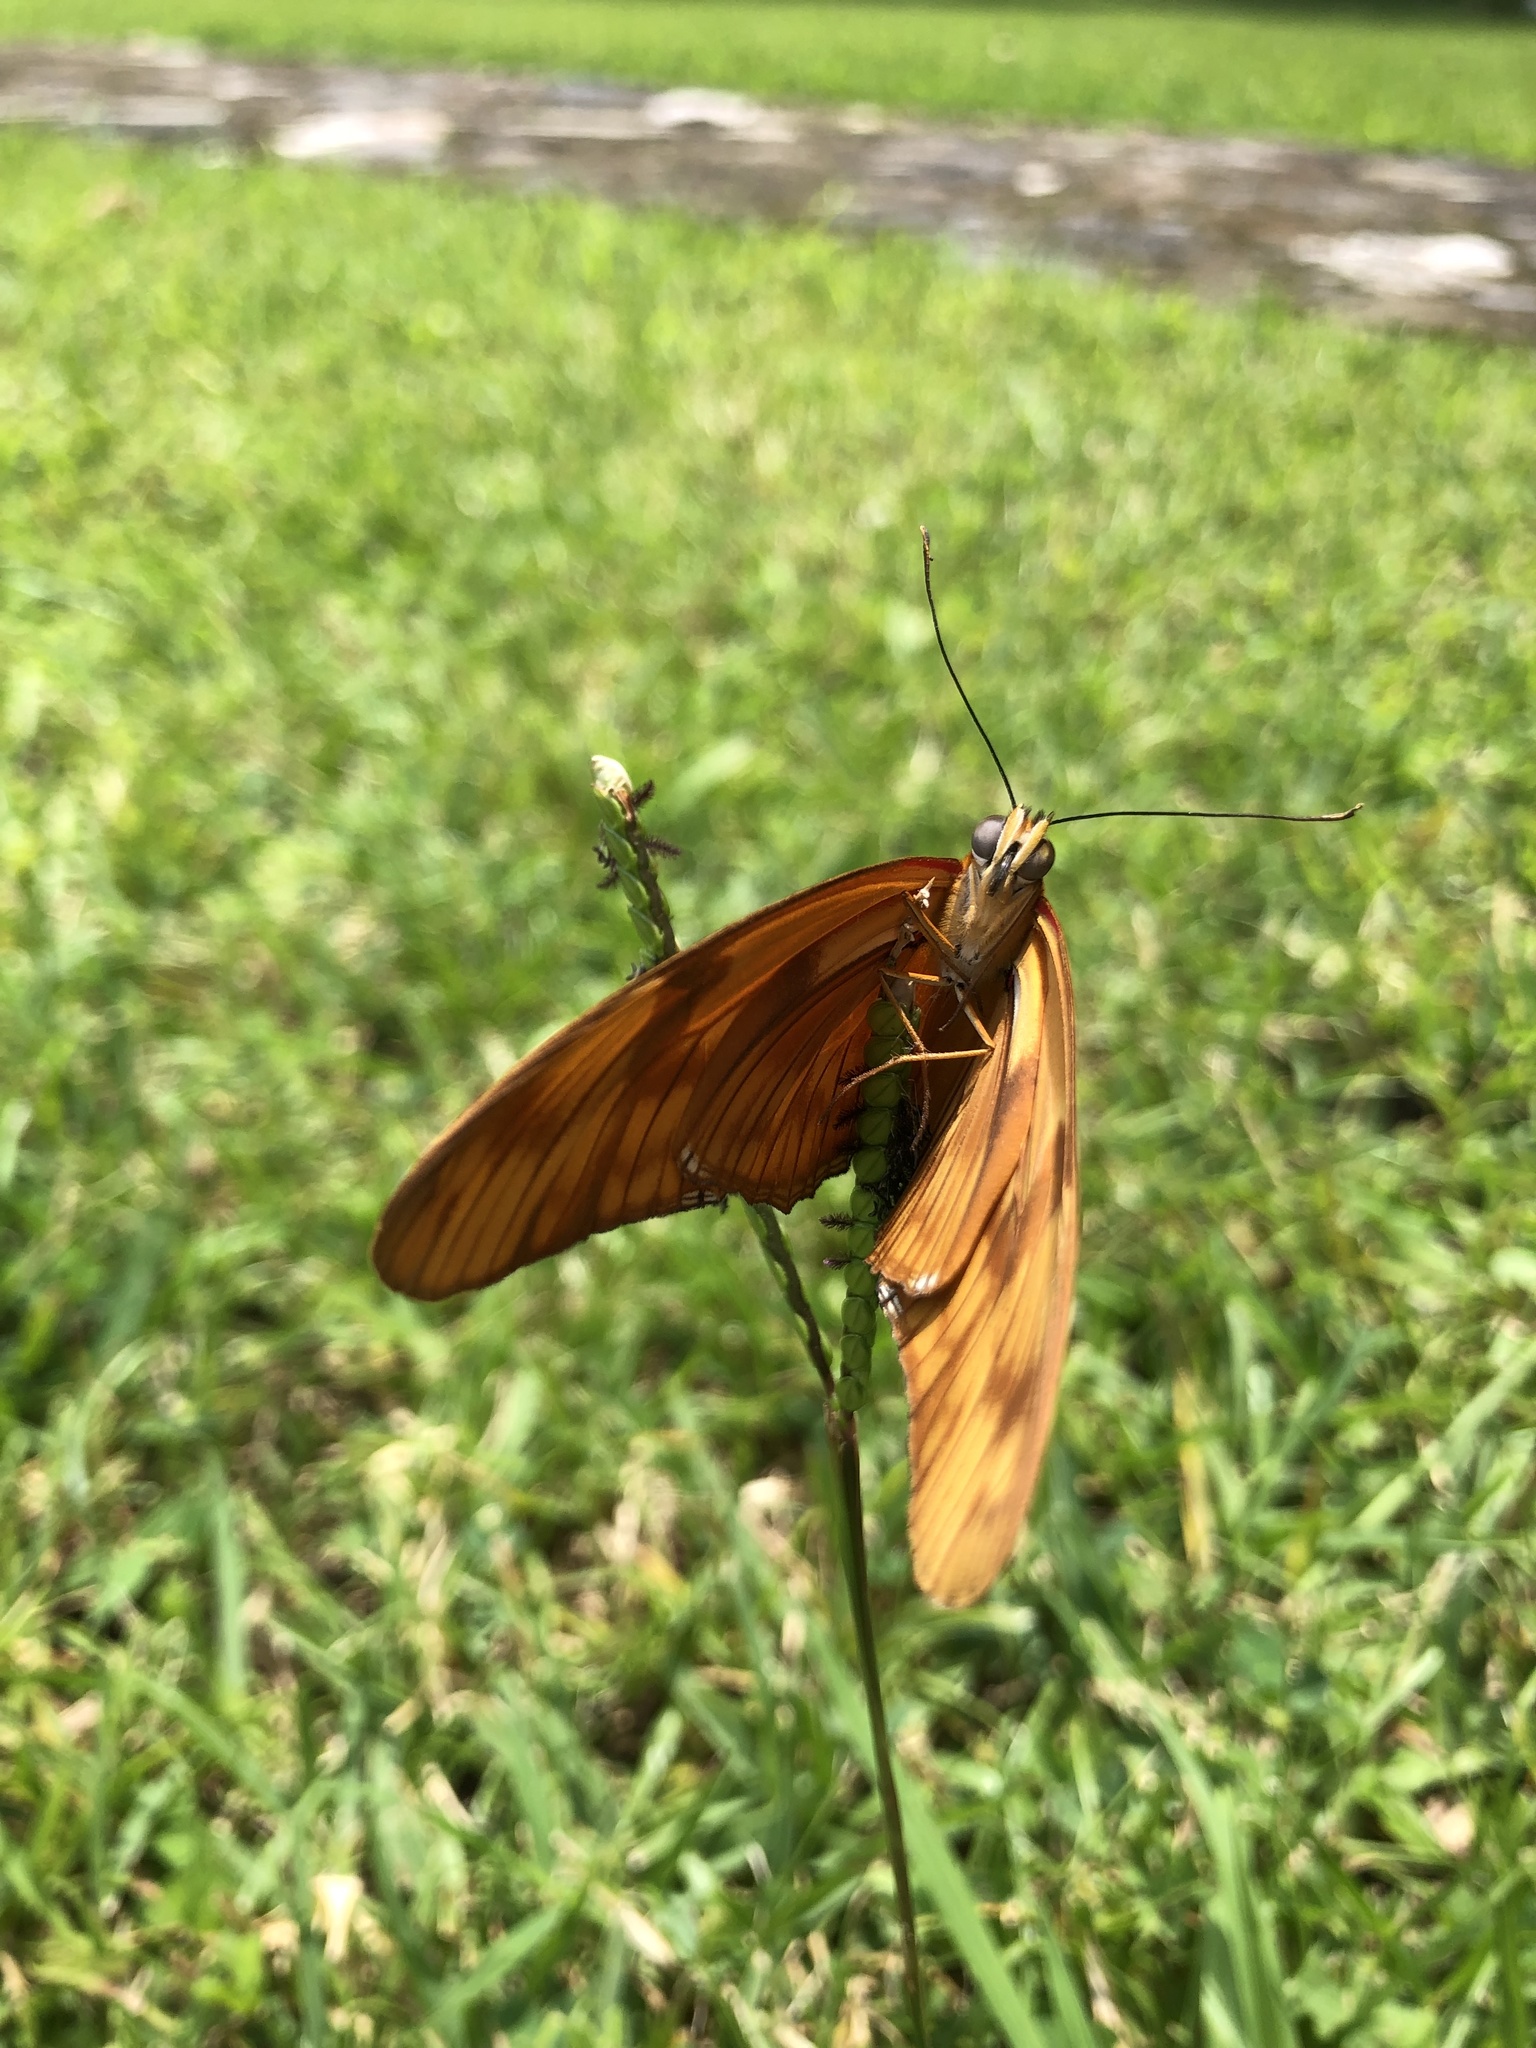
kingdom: Animalia
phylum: Arthropoda
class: Insecta
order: Lepidoptera
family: Nymphalidae
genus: Dryas
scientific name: Dryas iulia
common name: Flambeau
